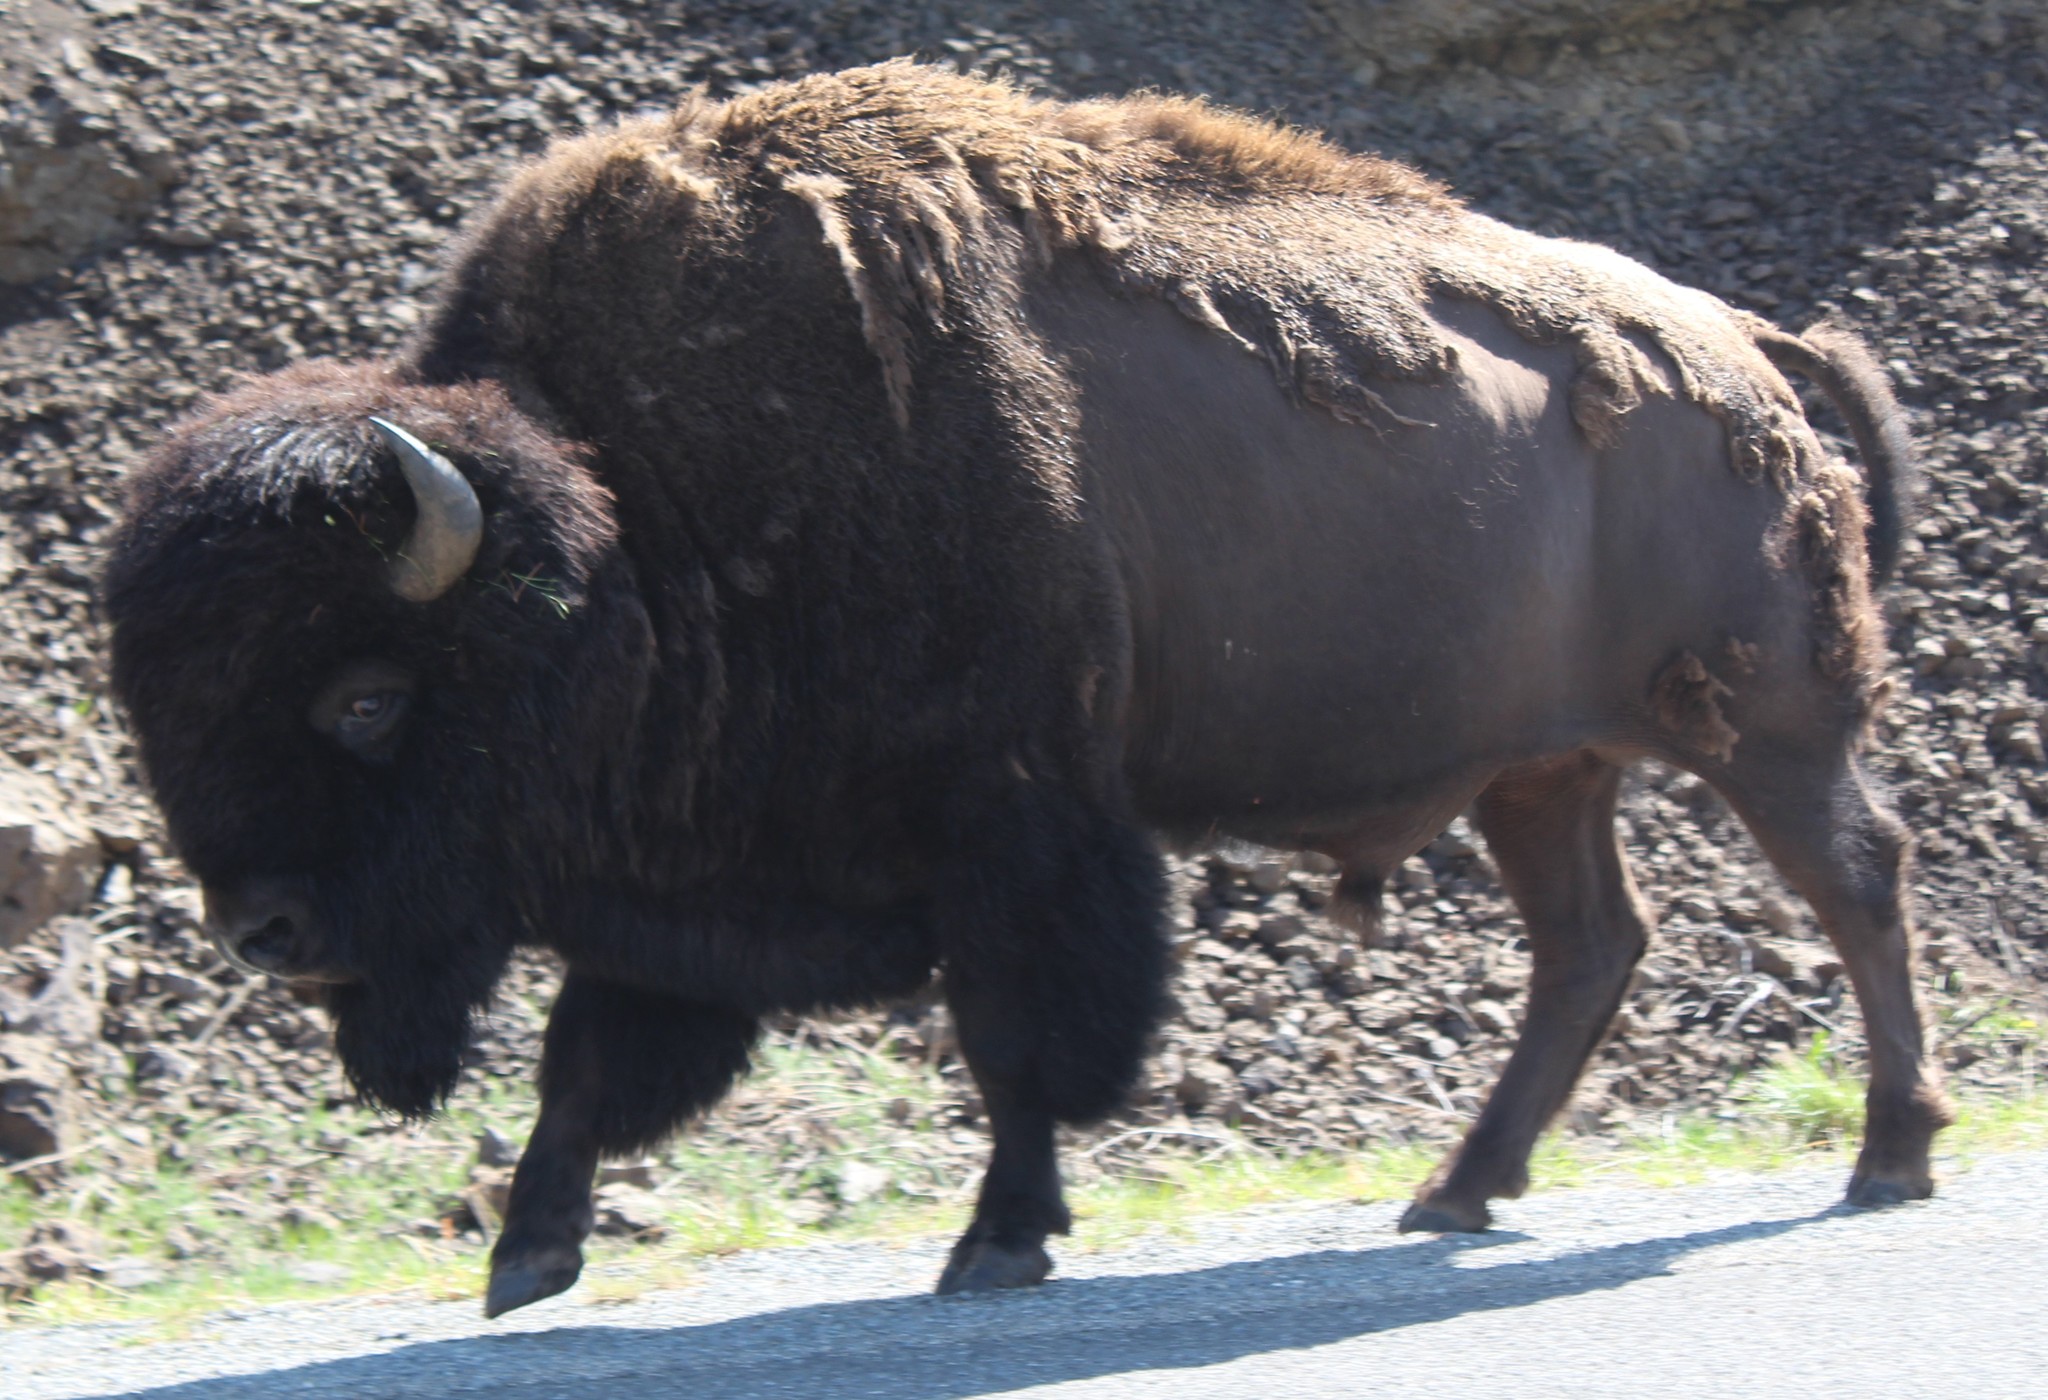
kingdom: Animalia
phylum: Chordata
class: Mammalia
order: Artiodactyla
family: Bovidae
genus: Bison
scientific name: Bison bison
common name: American bison
